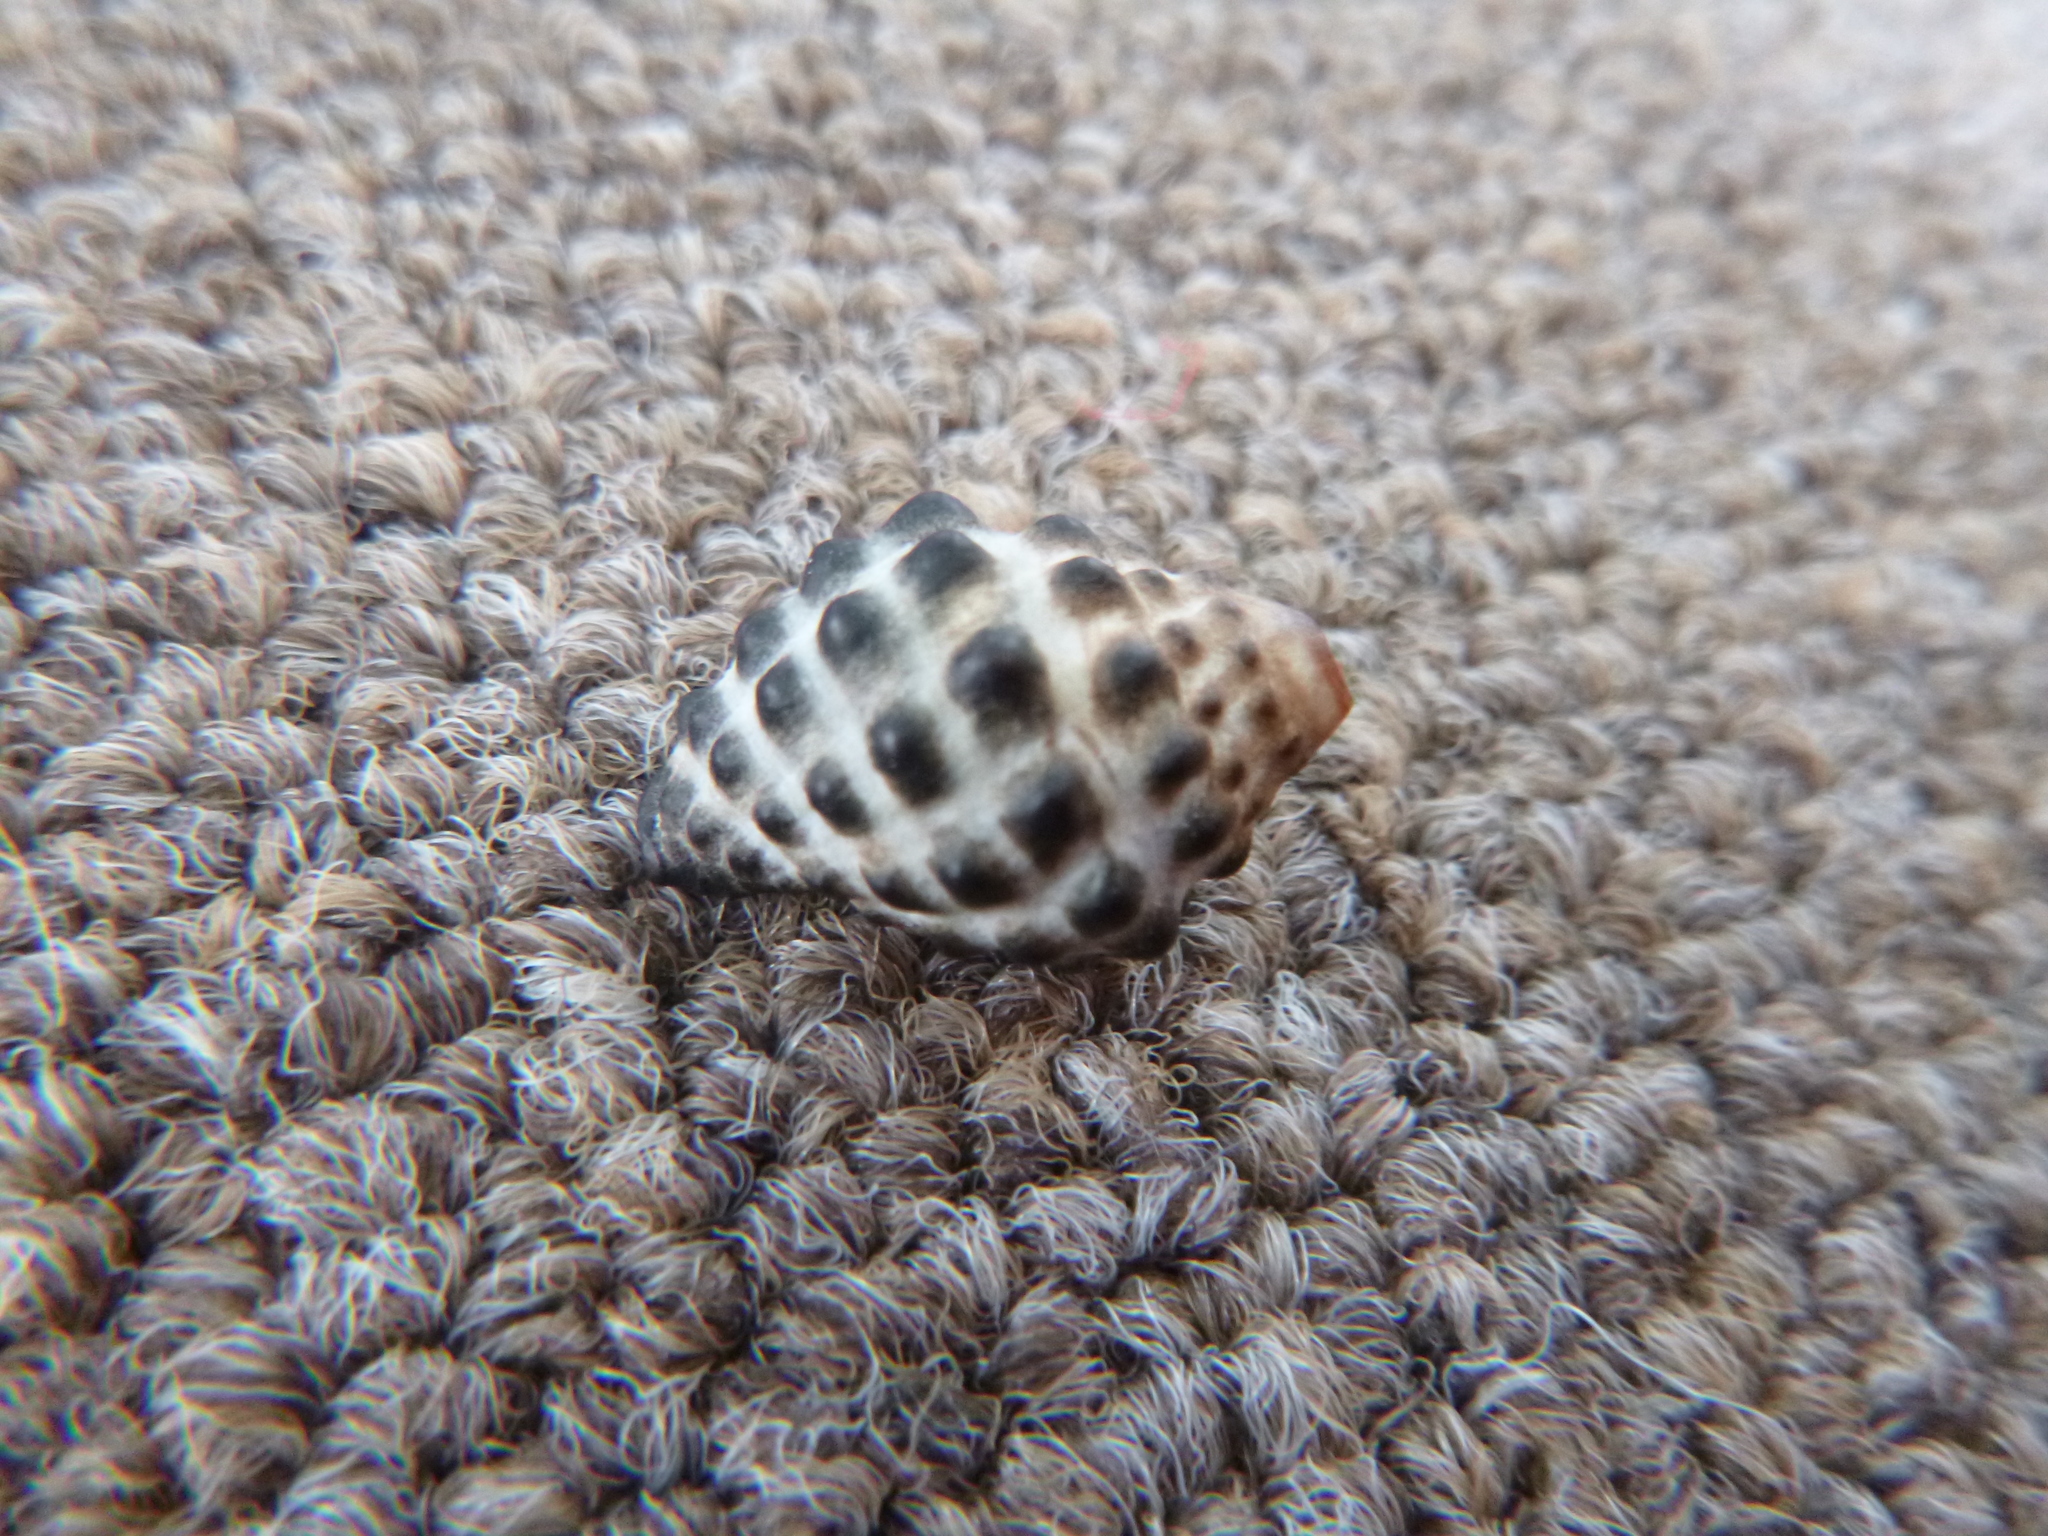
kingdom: Animalia
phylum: Mollusca
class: Gastropoda
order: Neogastropoda
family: Muricidae
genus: Tenguella
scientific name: Tenguella marginalba
